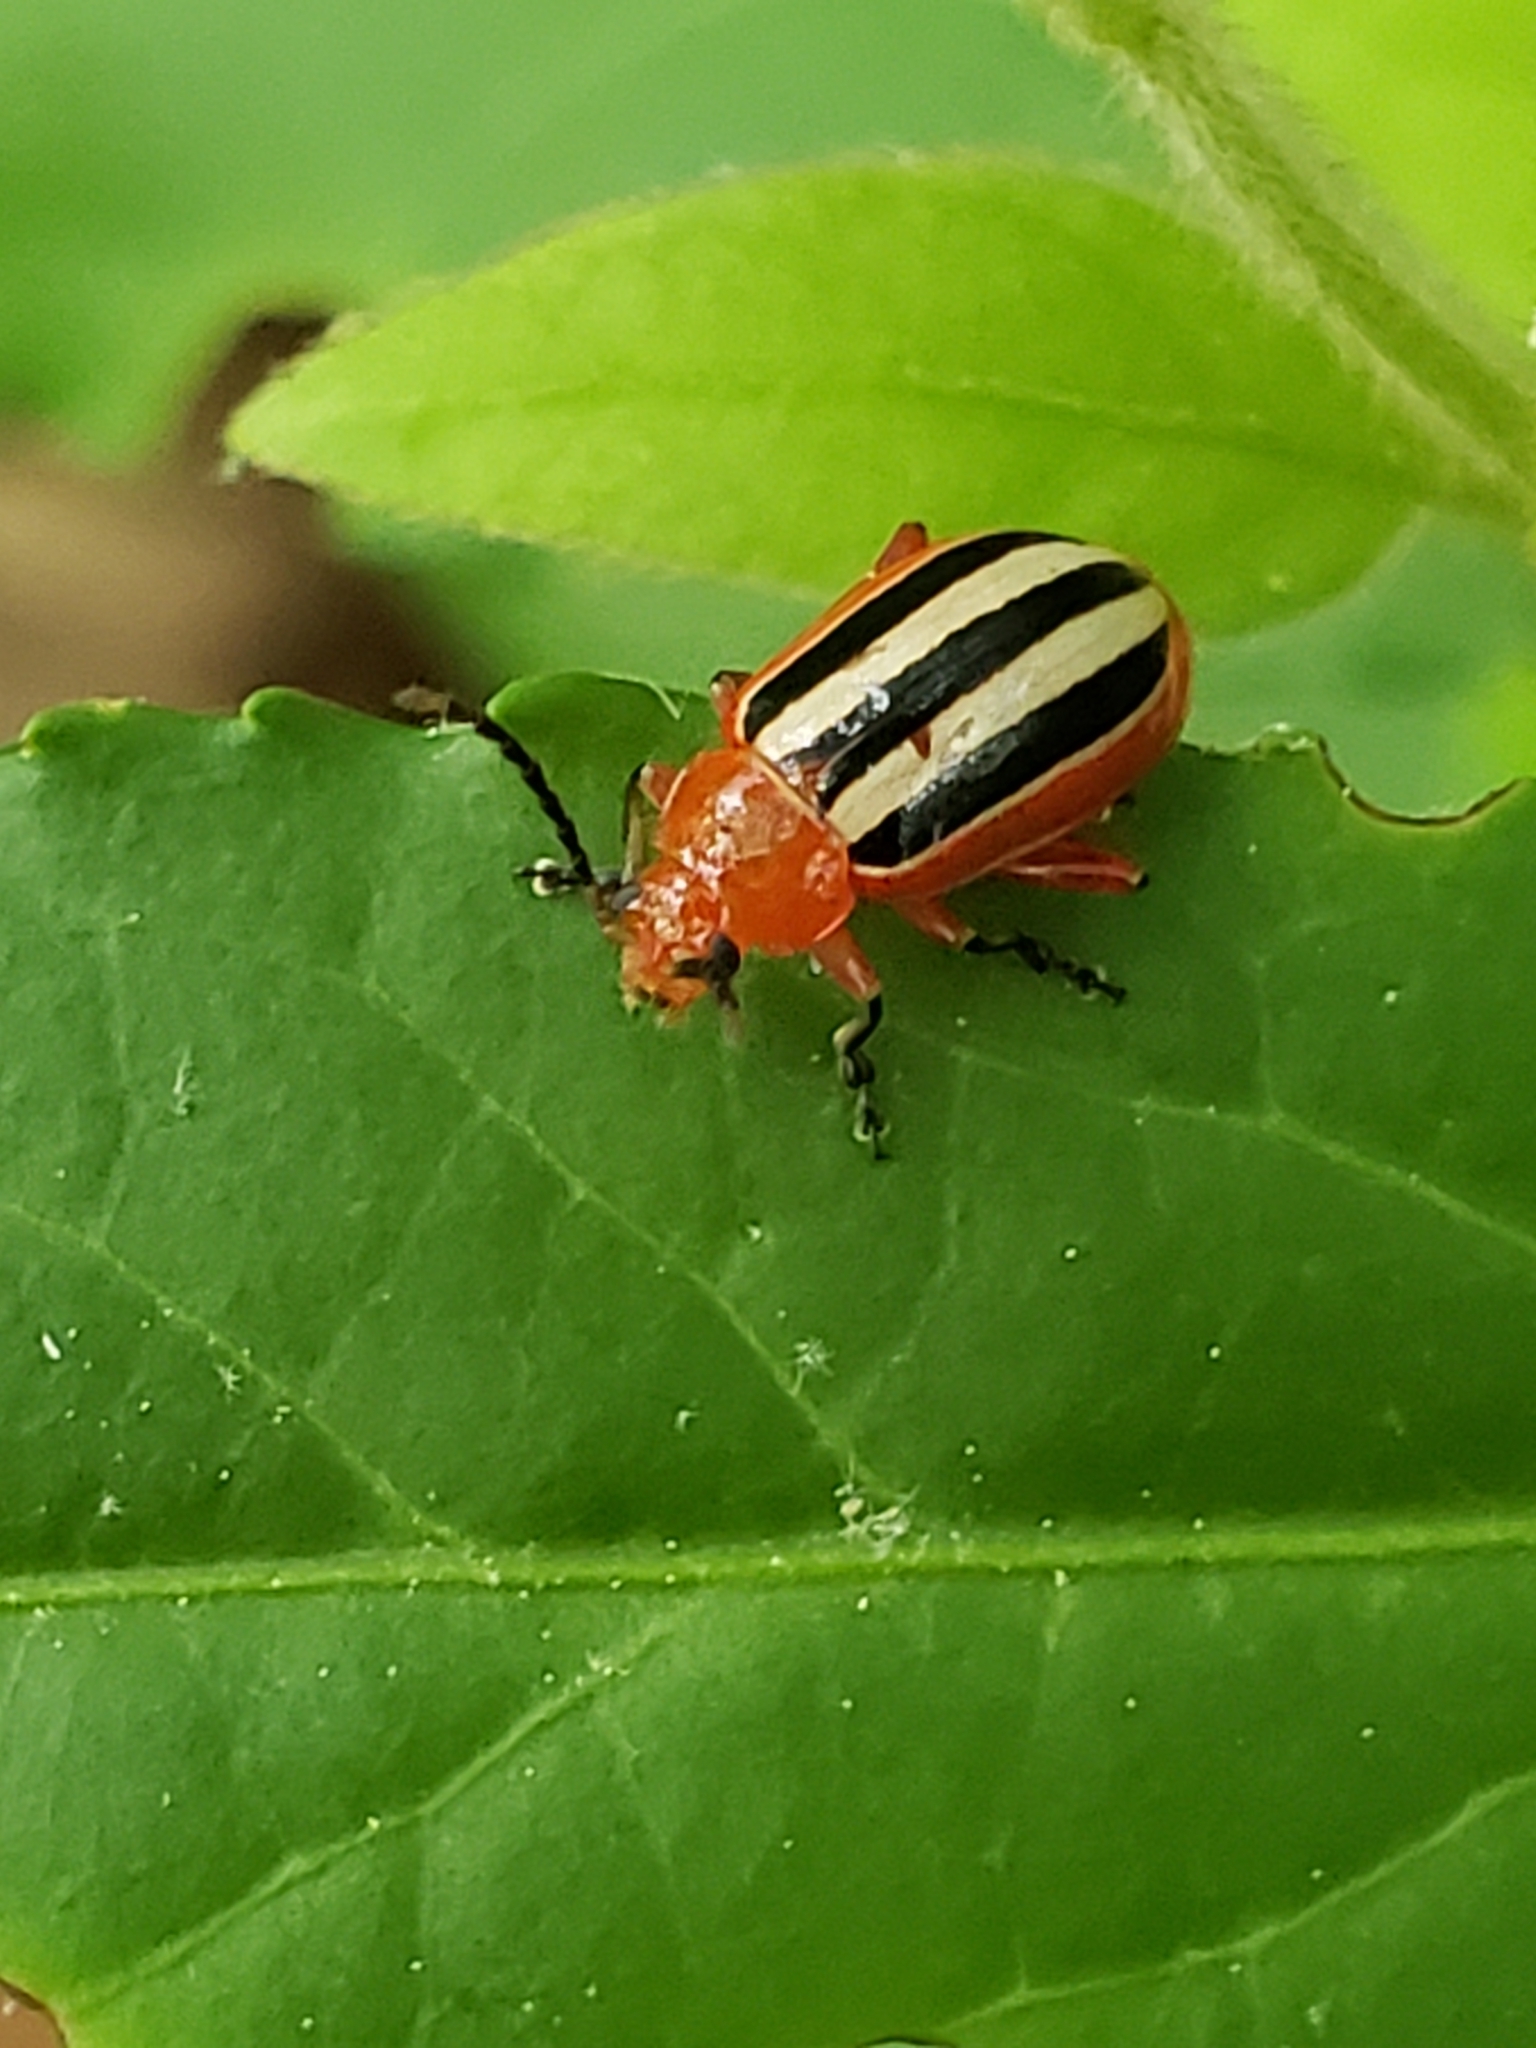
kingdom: Animalia
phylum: Arthropoda
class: Insecta
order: Coleoptera
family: Chrysomelidae
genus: Disonycha
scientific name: Disonycha discoidea
